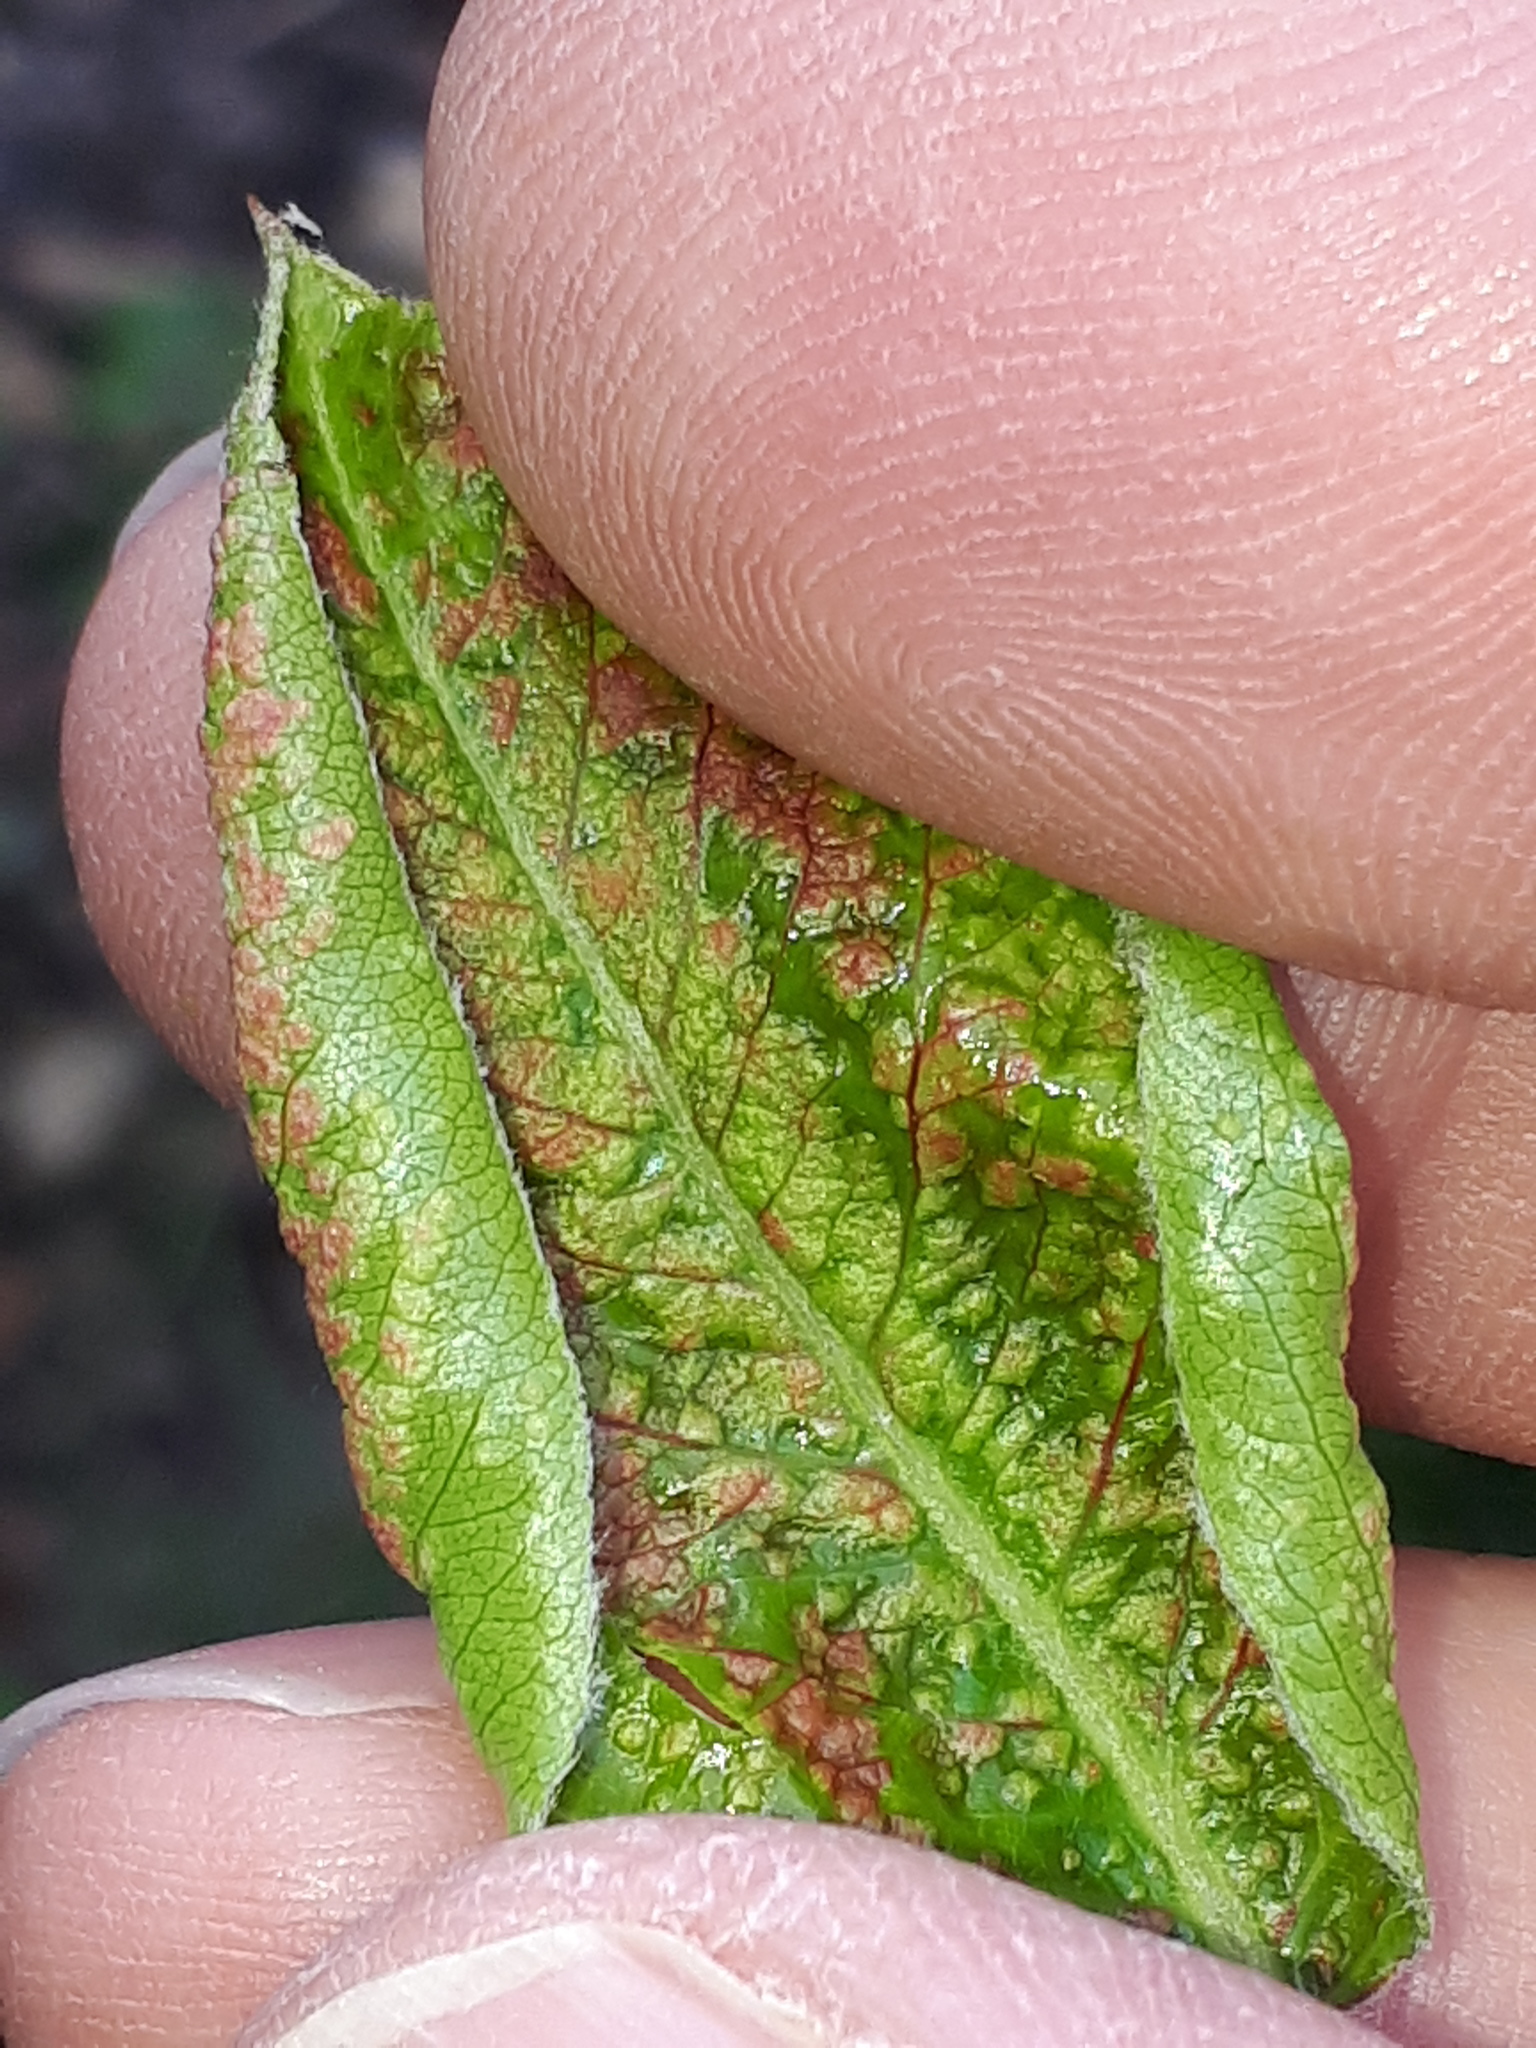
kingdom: Animalia
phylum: Arthropoda
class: Arachnida
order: Trombidiformes
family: Eriophyidae
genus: Eriophyes
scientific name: Eriophyes pyri
